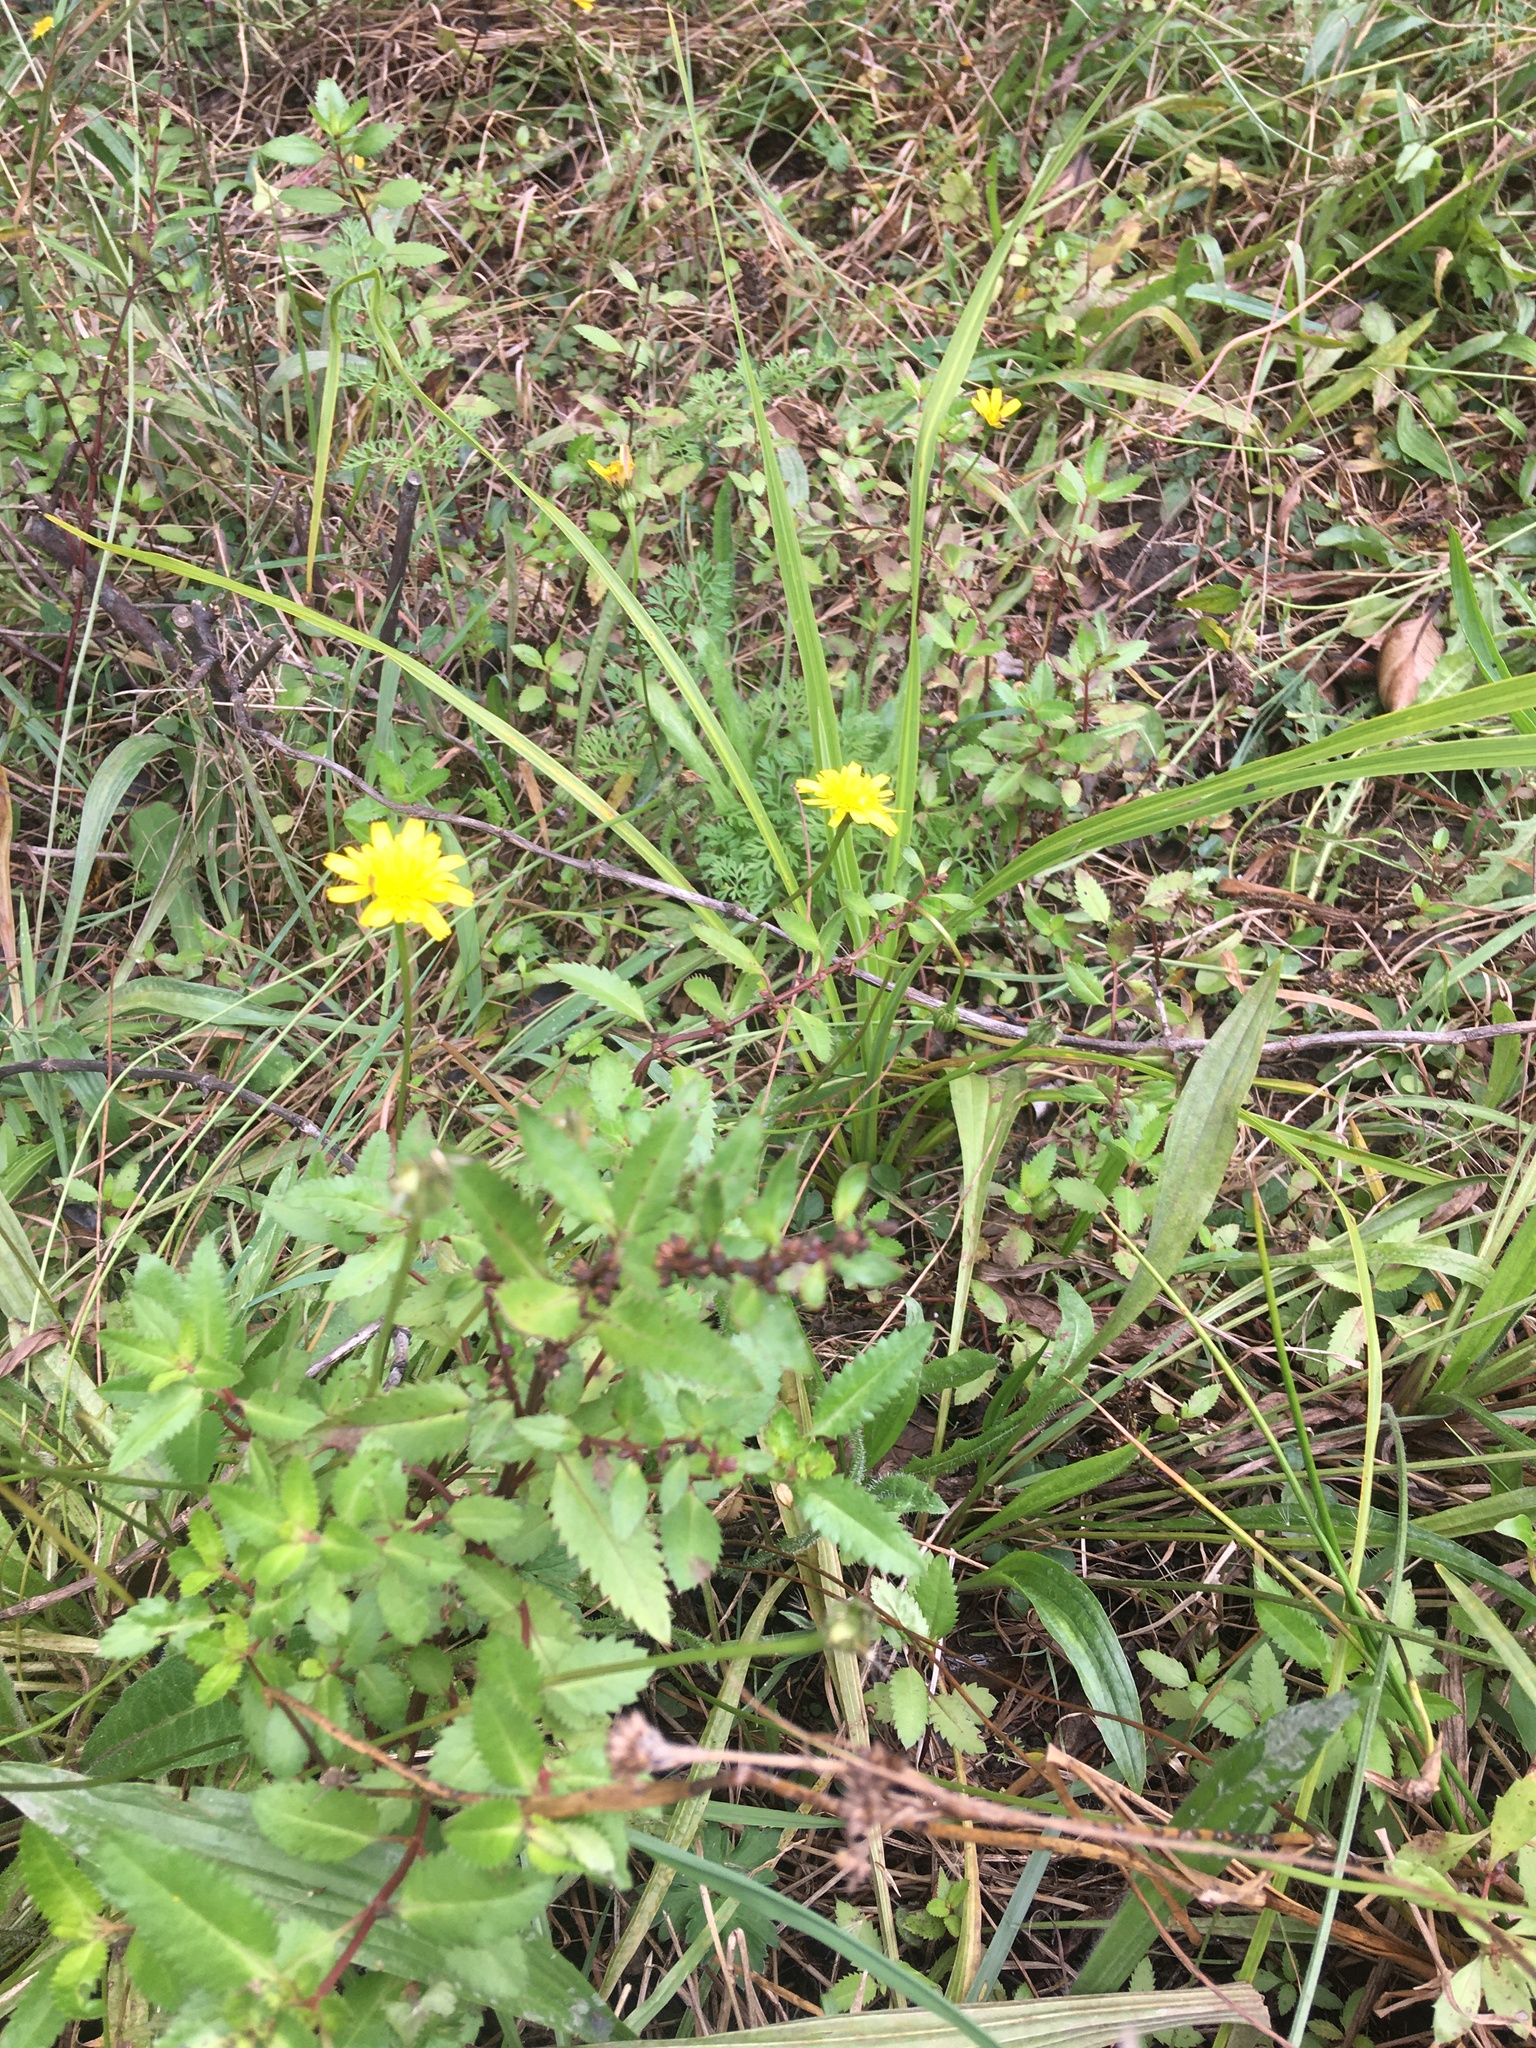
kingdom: Plantae
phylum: Tracheophyta
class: Magnoliopsida
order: Asterales
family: Asteraceae
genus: Hypochaeris
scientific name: Hypochaeris radicata
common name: Flatweed
